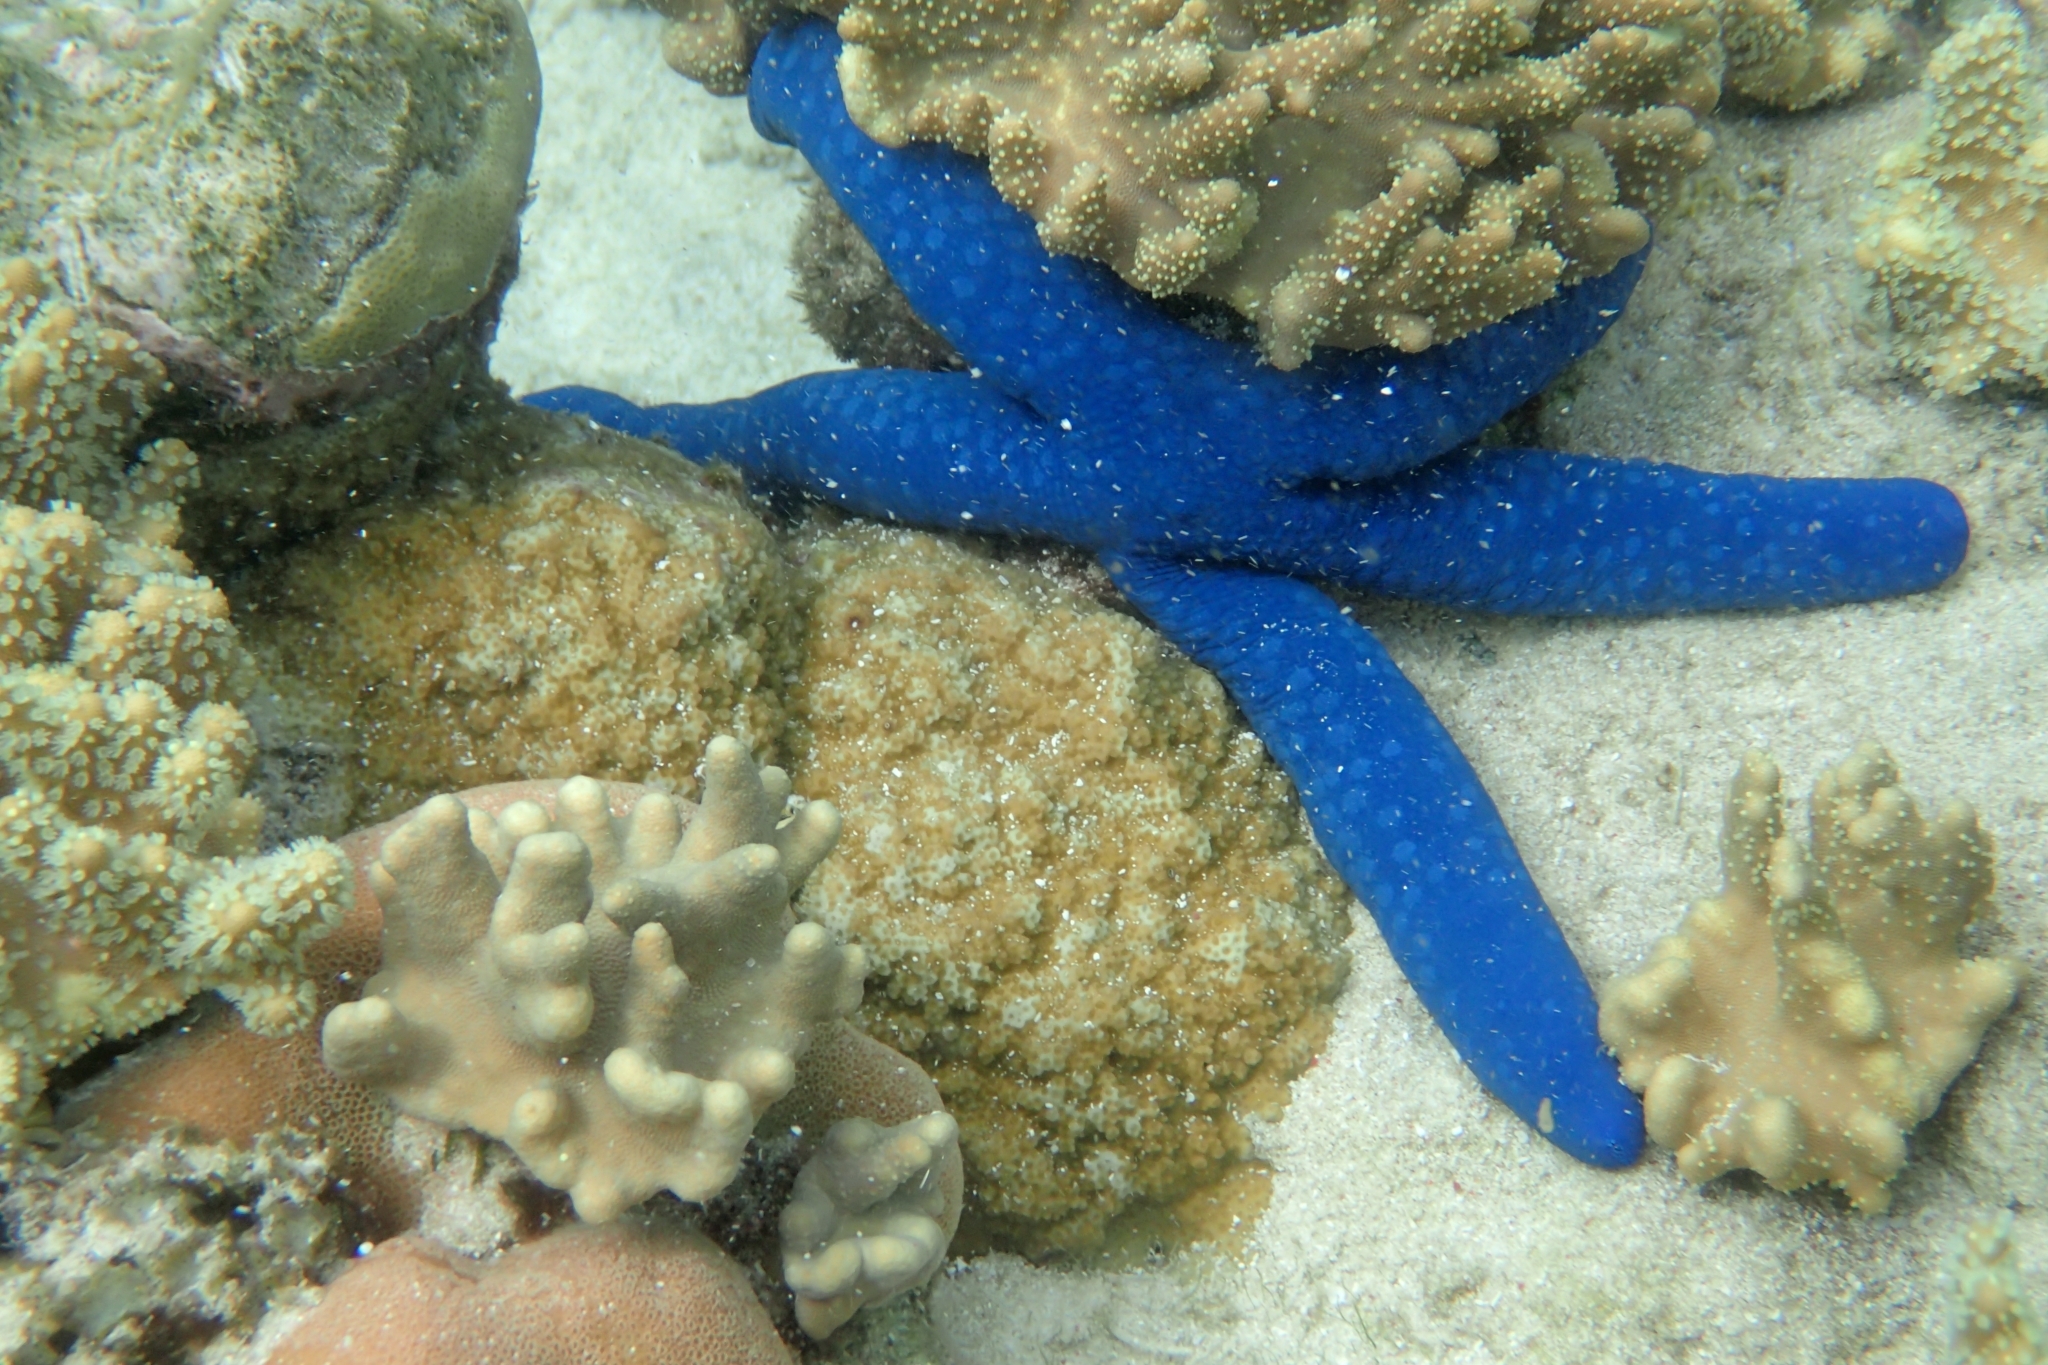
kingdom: Animalia
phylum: Echinodermata
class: Asteroidea
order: Valvatida
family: Ophidiasteridae
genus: Linckia
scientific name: Linckia laevigata
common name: Azure sea star
